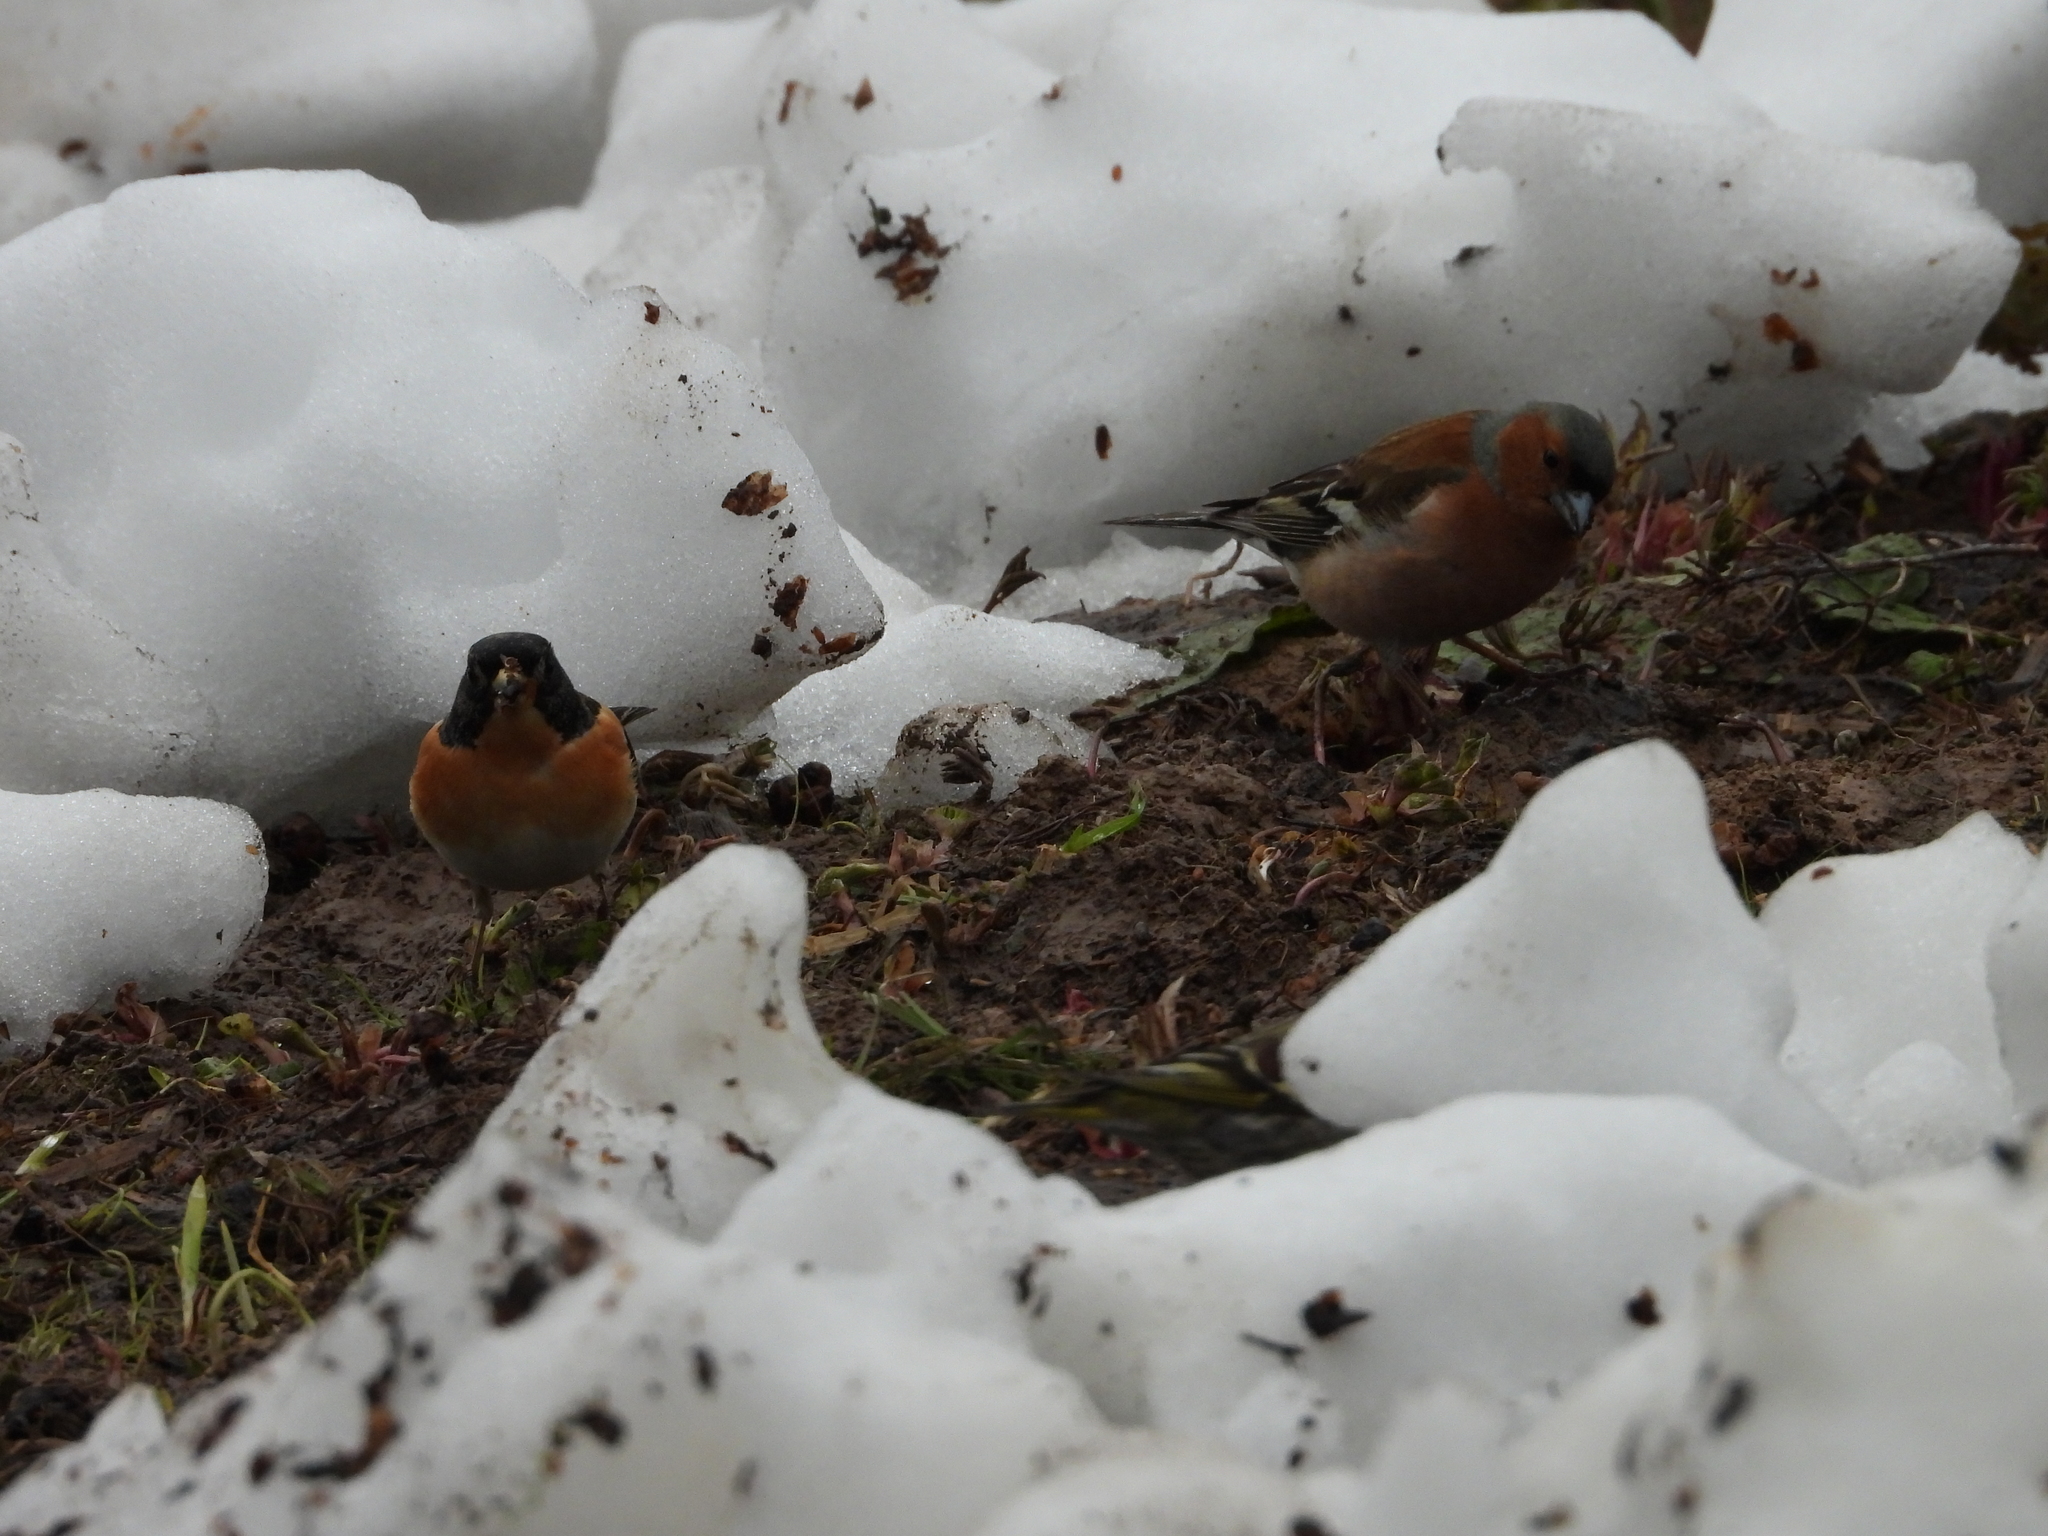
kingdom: Animalia
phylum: Chordata
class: Aves
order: Passeriformes
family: Fringillidae
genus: Fringilla
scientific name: Fringilla montifringilla
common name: Brambling
